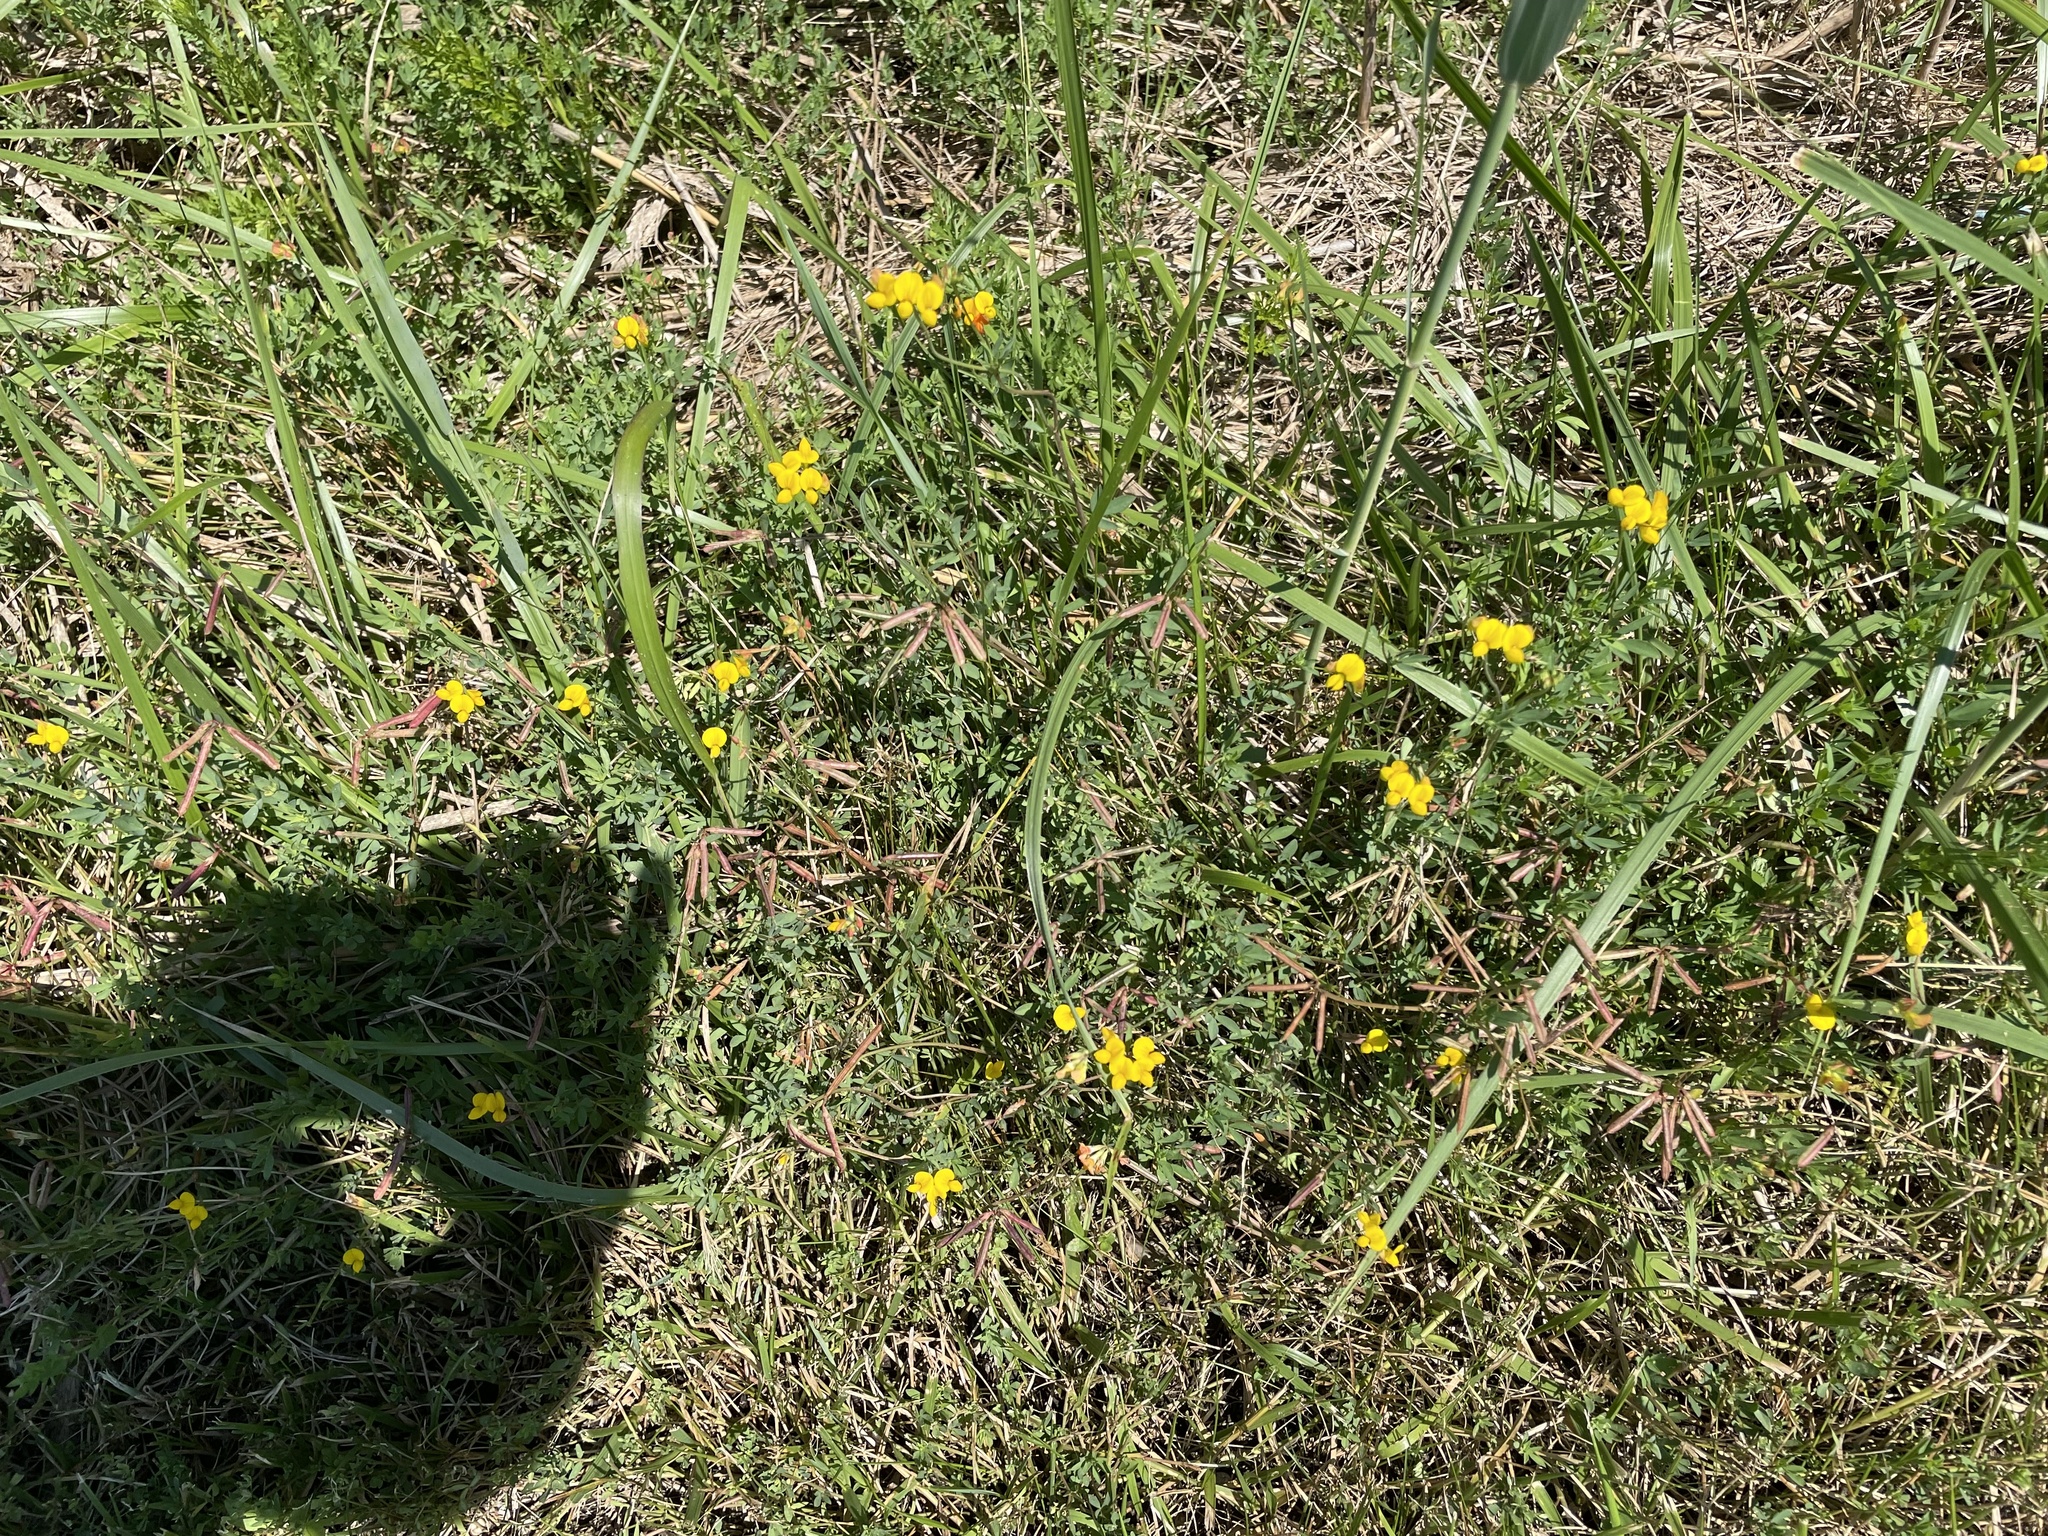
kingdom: Plantae
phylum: Tracheophyta
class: Magnoliopsida
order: Fabales
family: Fabaceae
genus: Lotus
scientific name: Lotus corniculatus
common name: Common bird's-foot-trefoil
